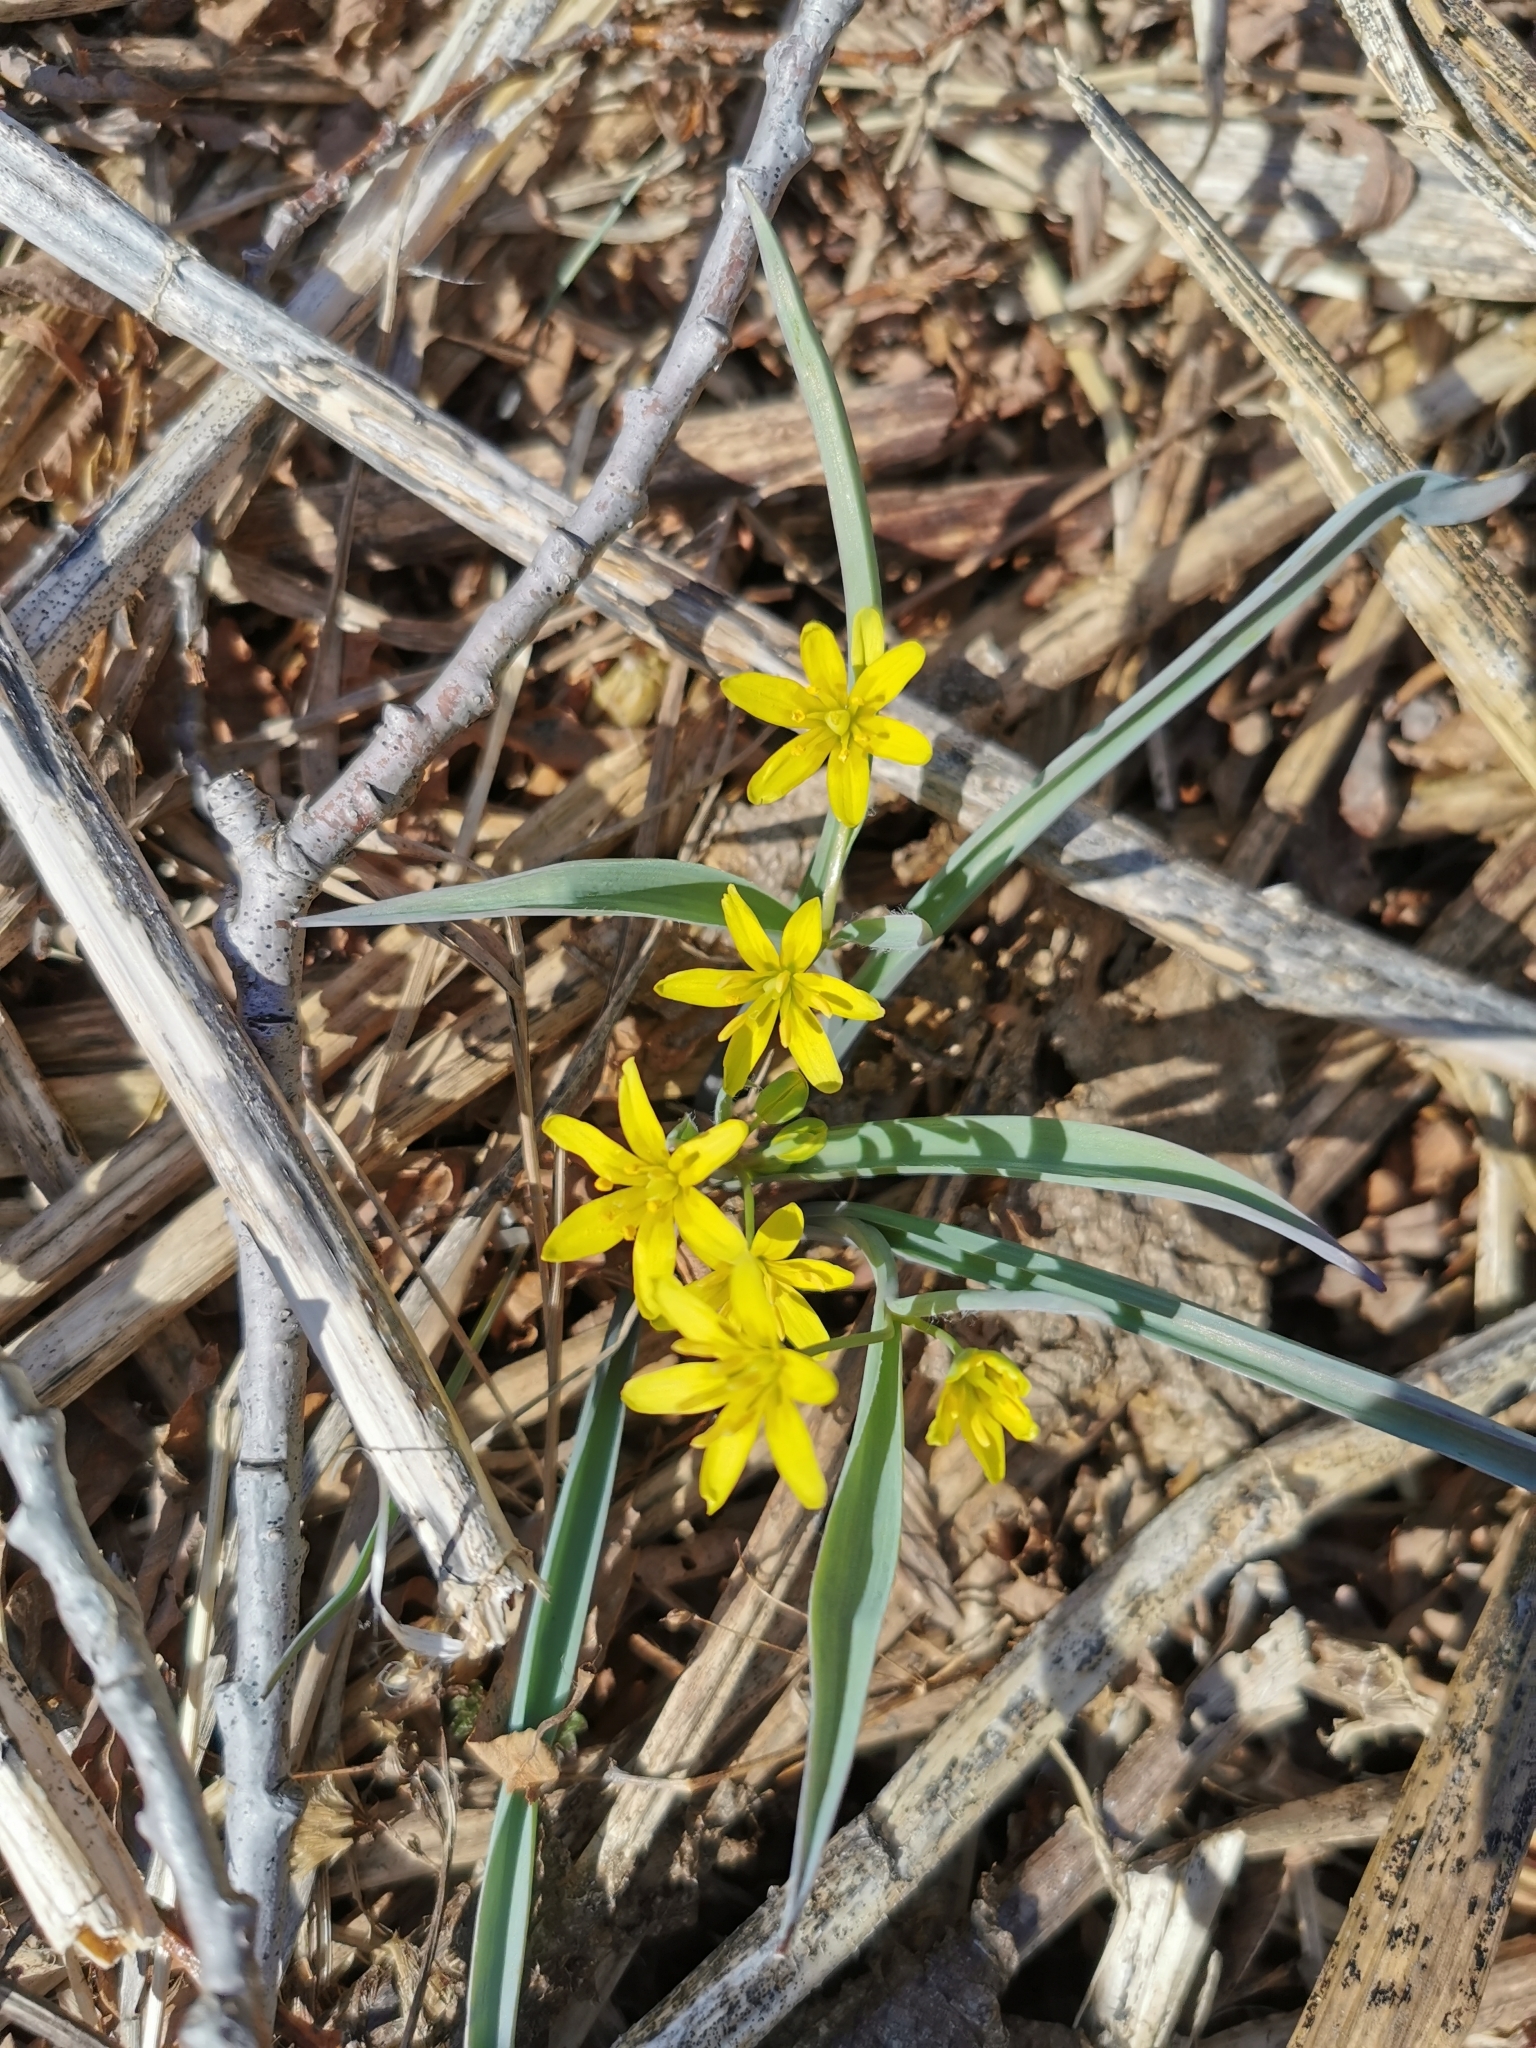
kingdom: Plantae
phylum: Tracheophyta
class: Liliopsida
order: Liliales
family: Liliaceae
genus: Gagea
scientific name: Gagea nakaiana
